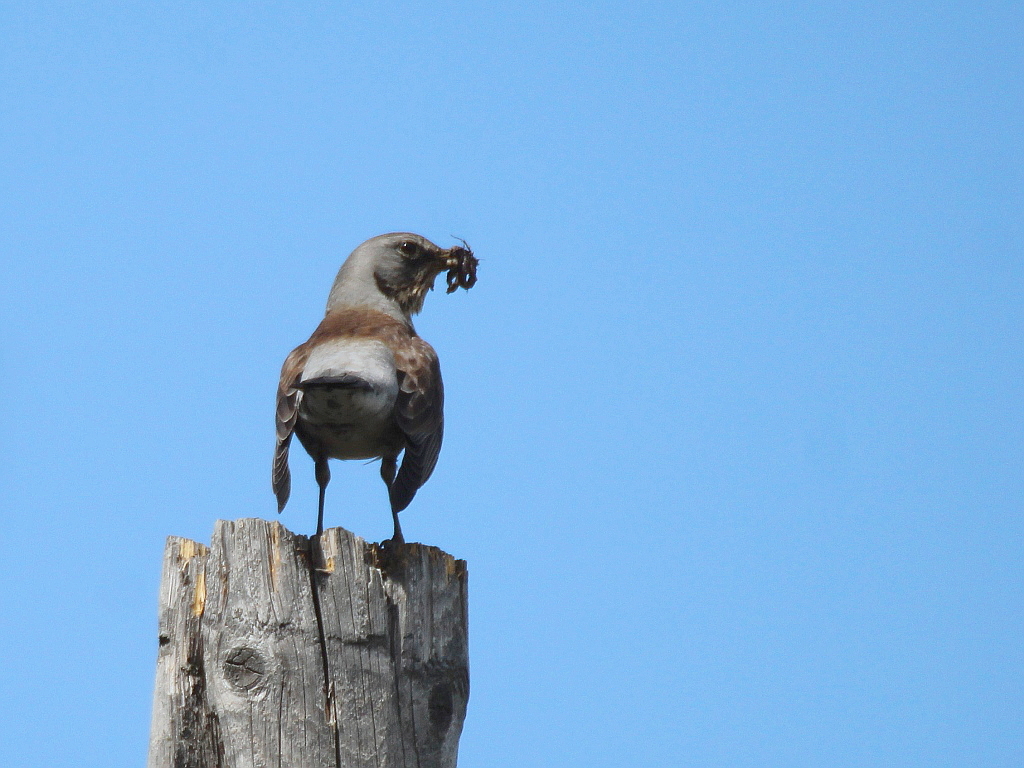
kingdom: Animalia
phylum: Chordata
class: Aves
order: Passeriformes
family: Turdidae
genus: Turdus
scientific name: Turdus pilaris
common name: Fieldfare
